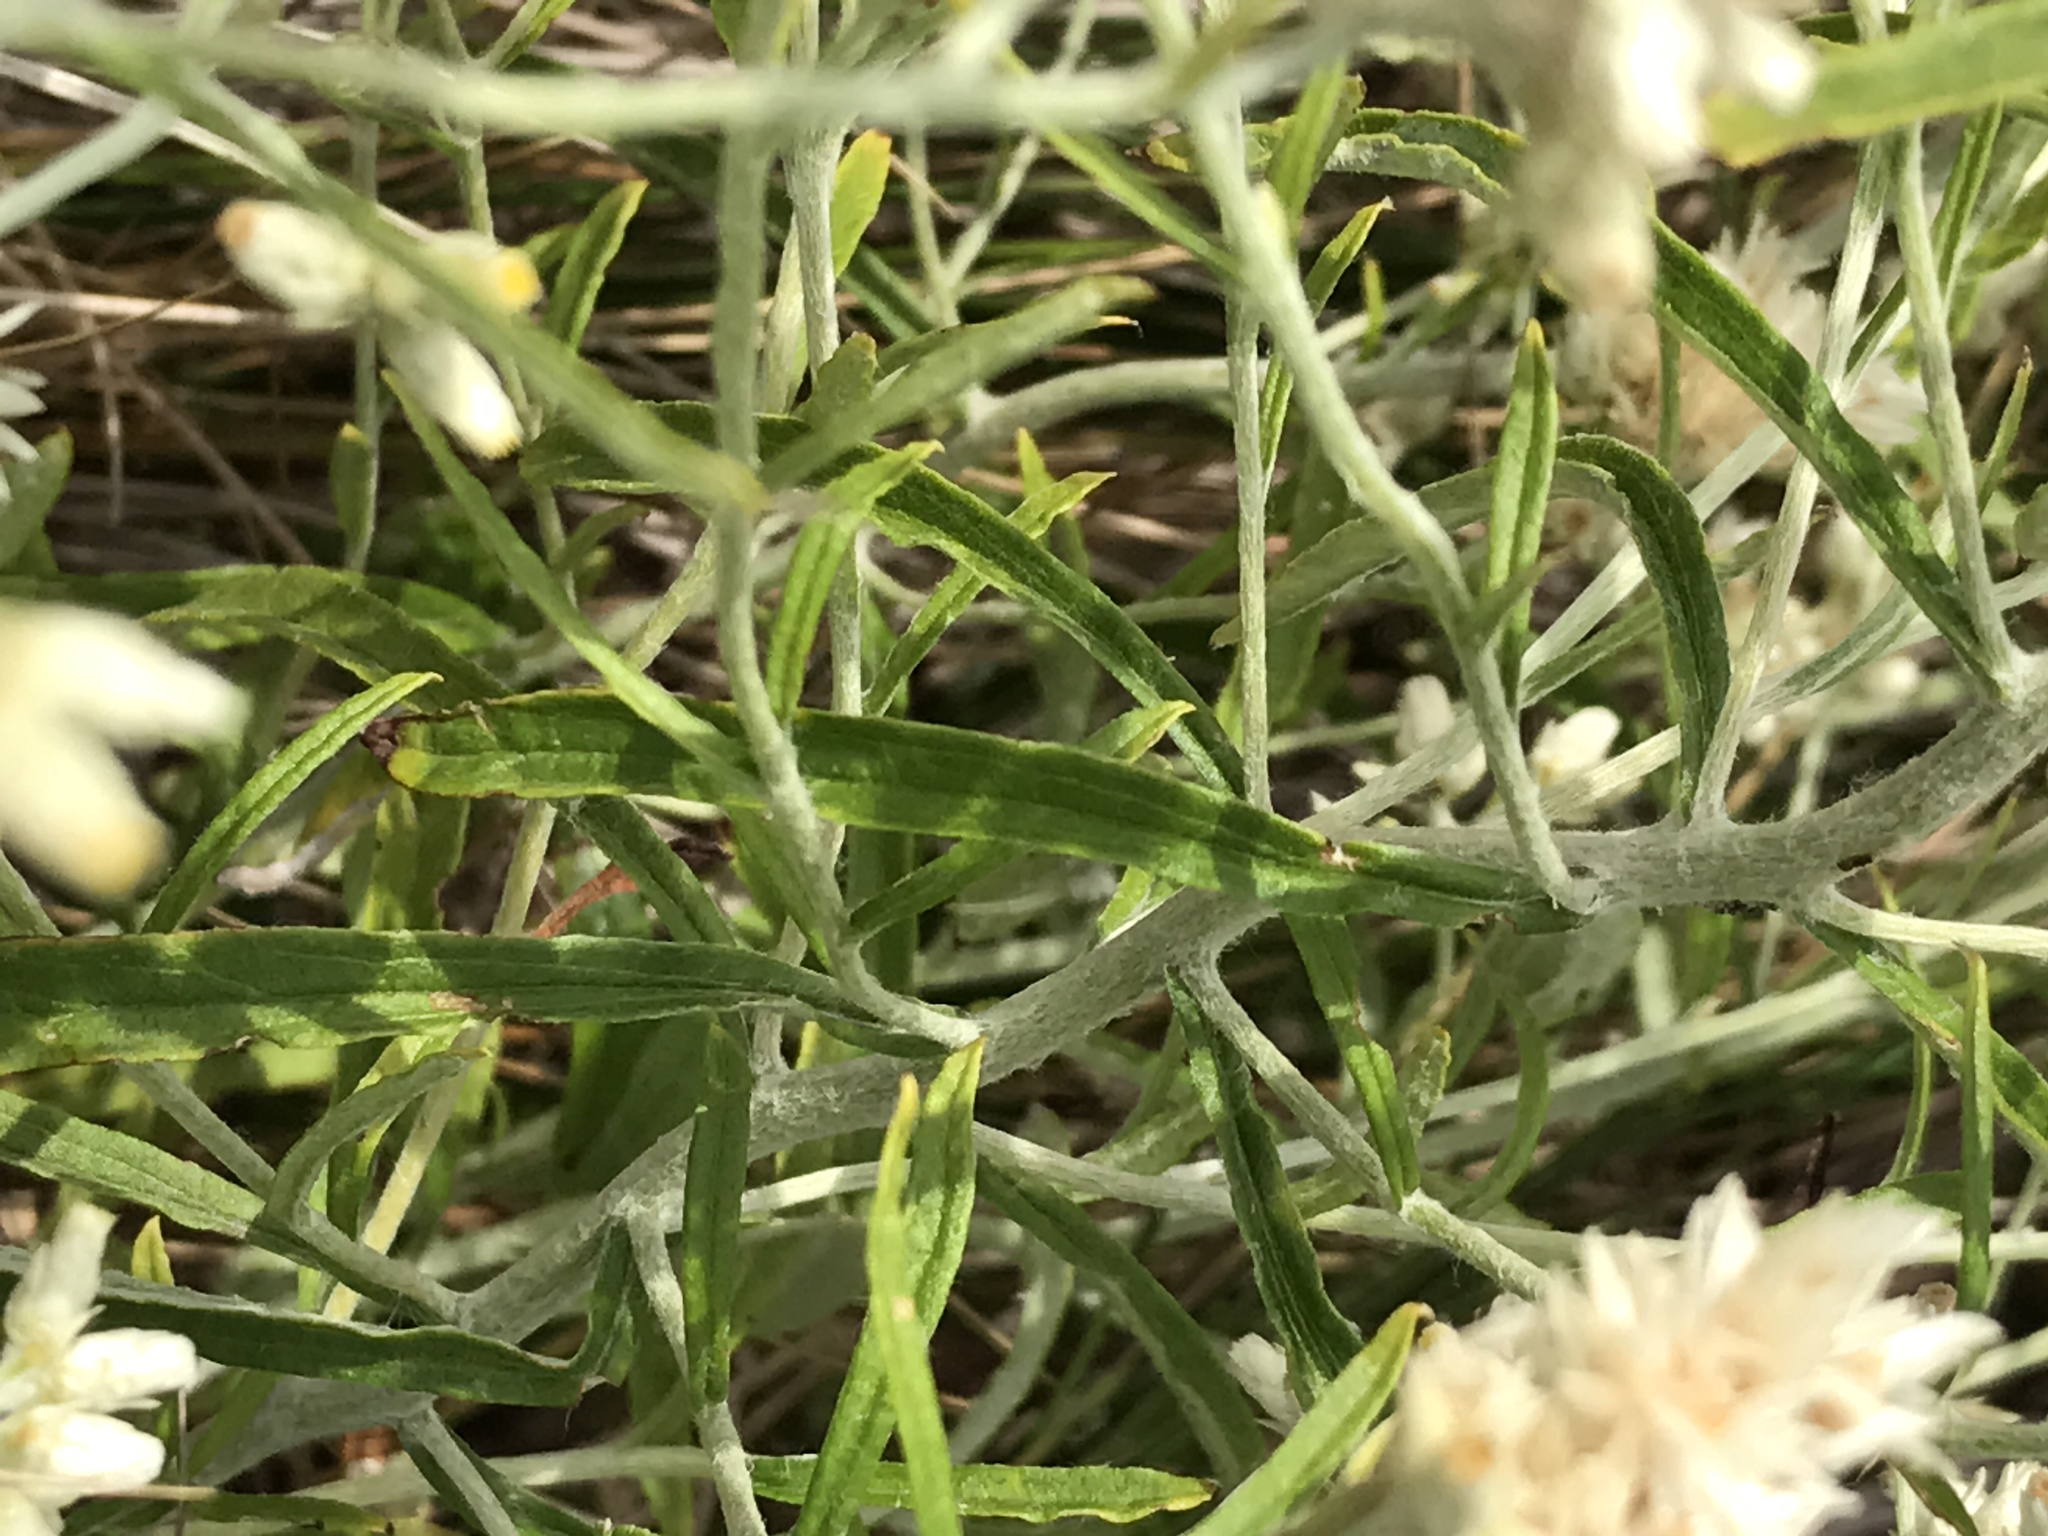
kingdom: Plantae
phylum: Tracheophyta
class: Magnoliopsida
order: Asterales
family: Asteraceae
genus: Pseudognaphalium
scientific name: Pseudognaphalium obtusifolium
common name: Eastern rabbit-tobacco
